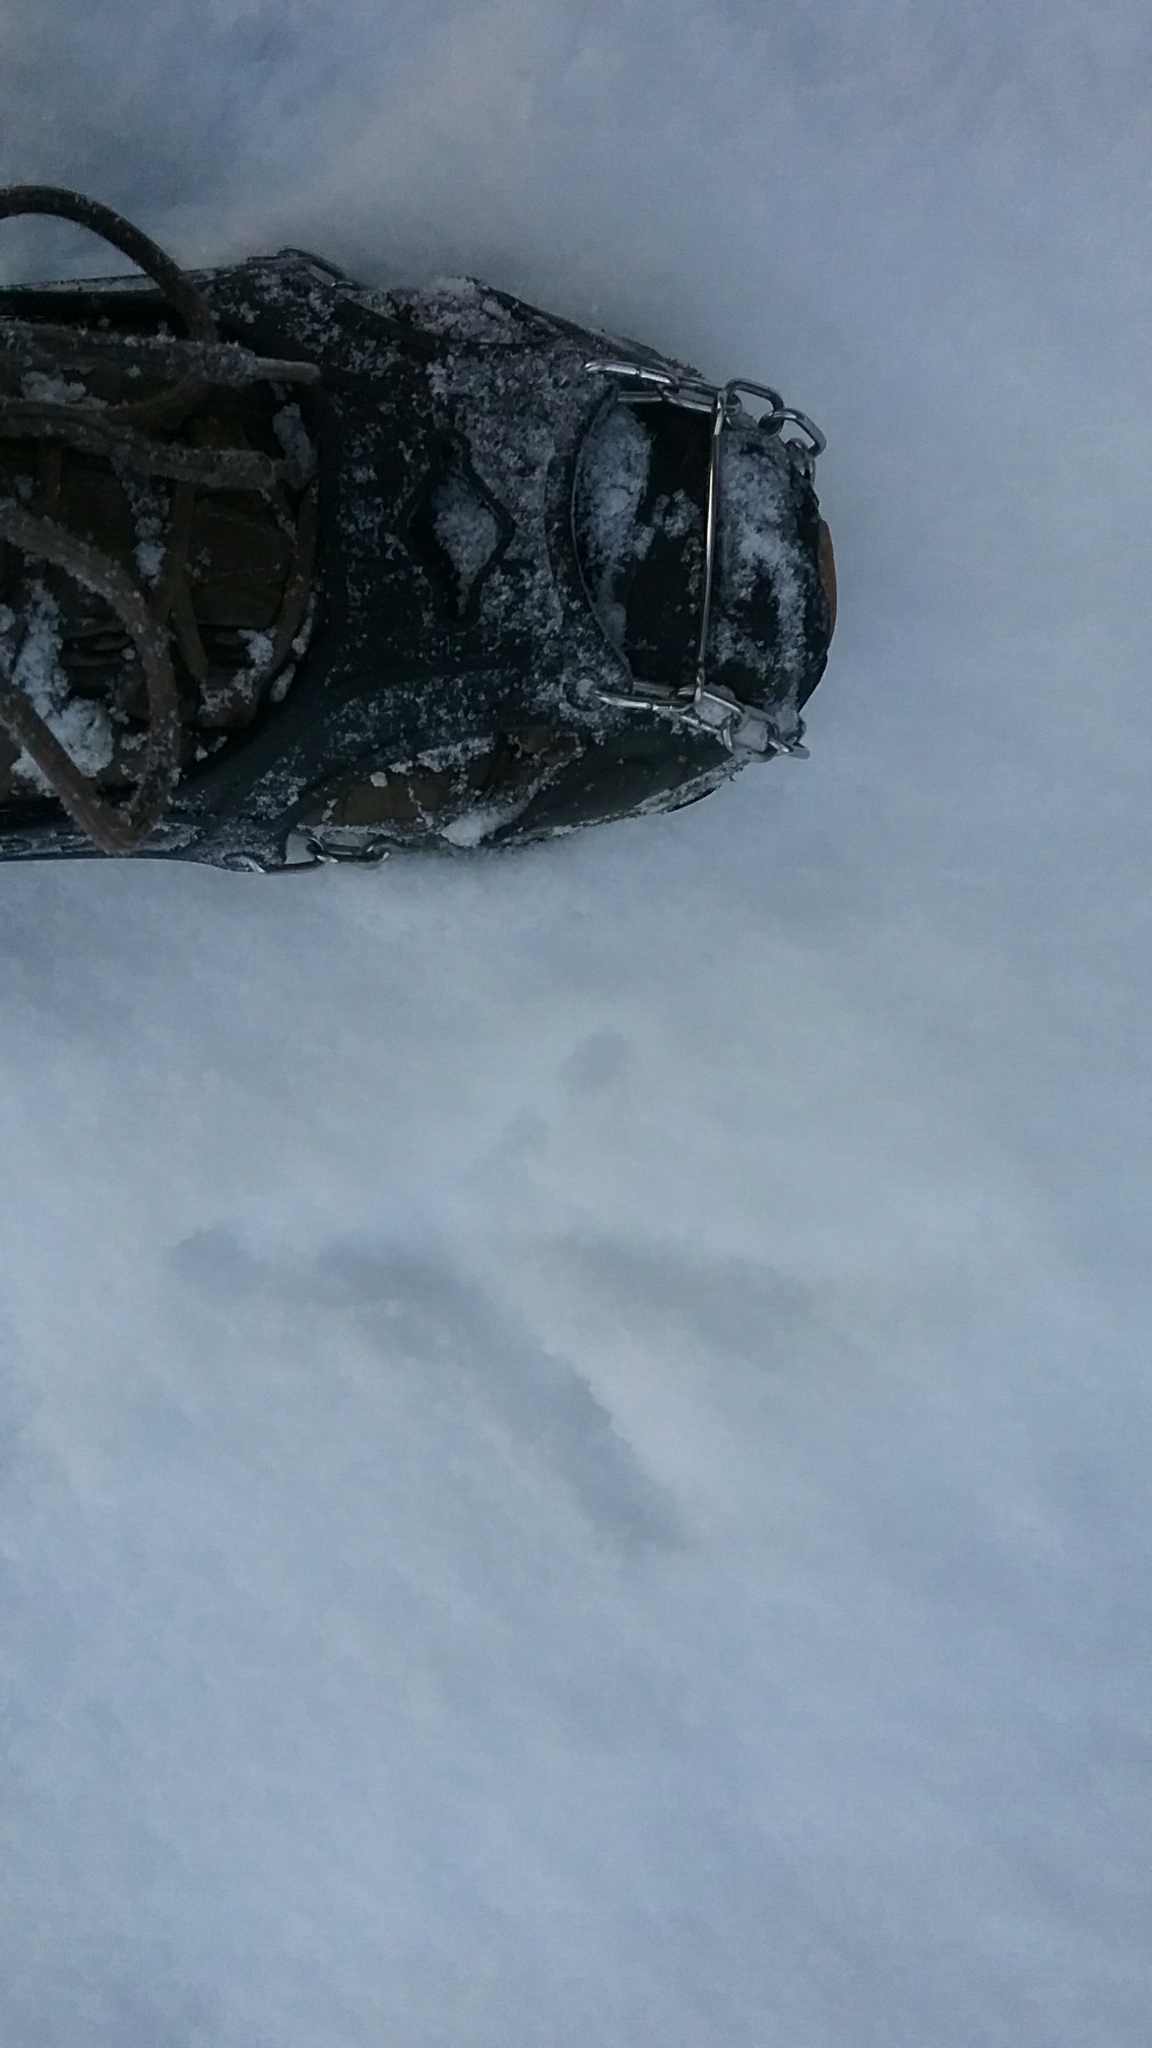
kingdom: Animalia
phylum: Chordata
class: Aves
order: Galliformes
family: Phasianidae
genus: Meleagris
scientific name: Meleagris gallopavo
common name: Wild turkey
